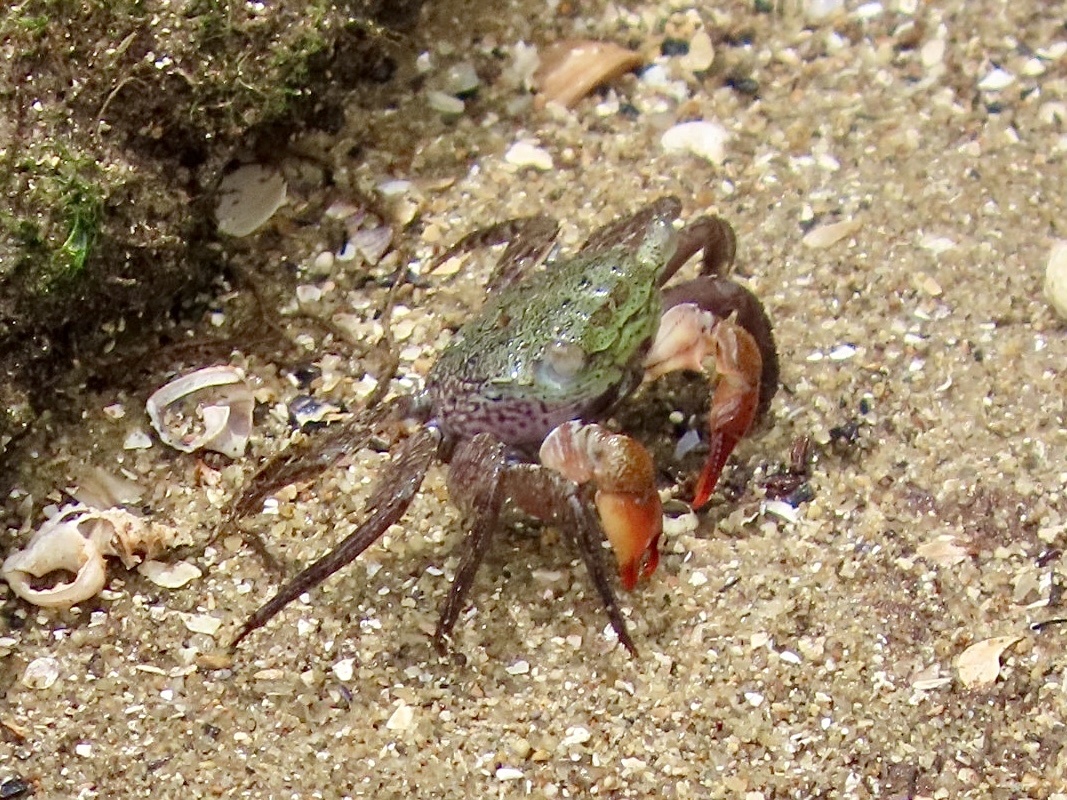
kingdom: Animalia
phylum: Arthropoda
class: Malacostraca
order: Decapoda
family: Sesarmidae
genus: Parasesarma
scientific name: Parasesarma continentale
